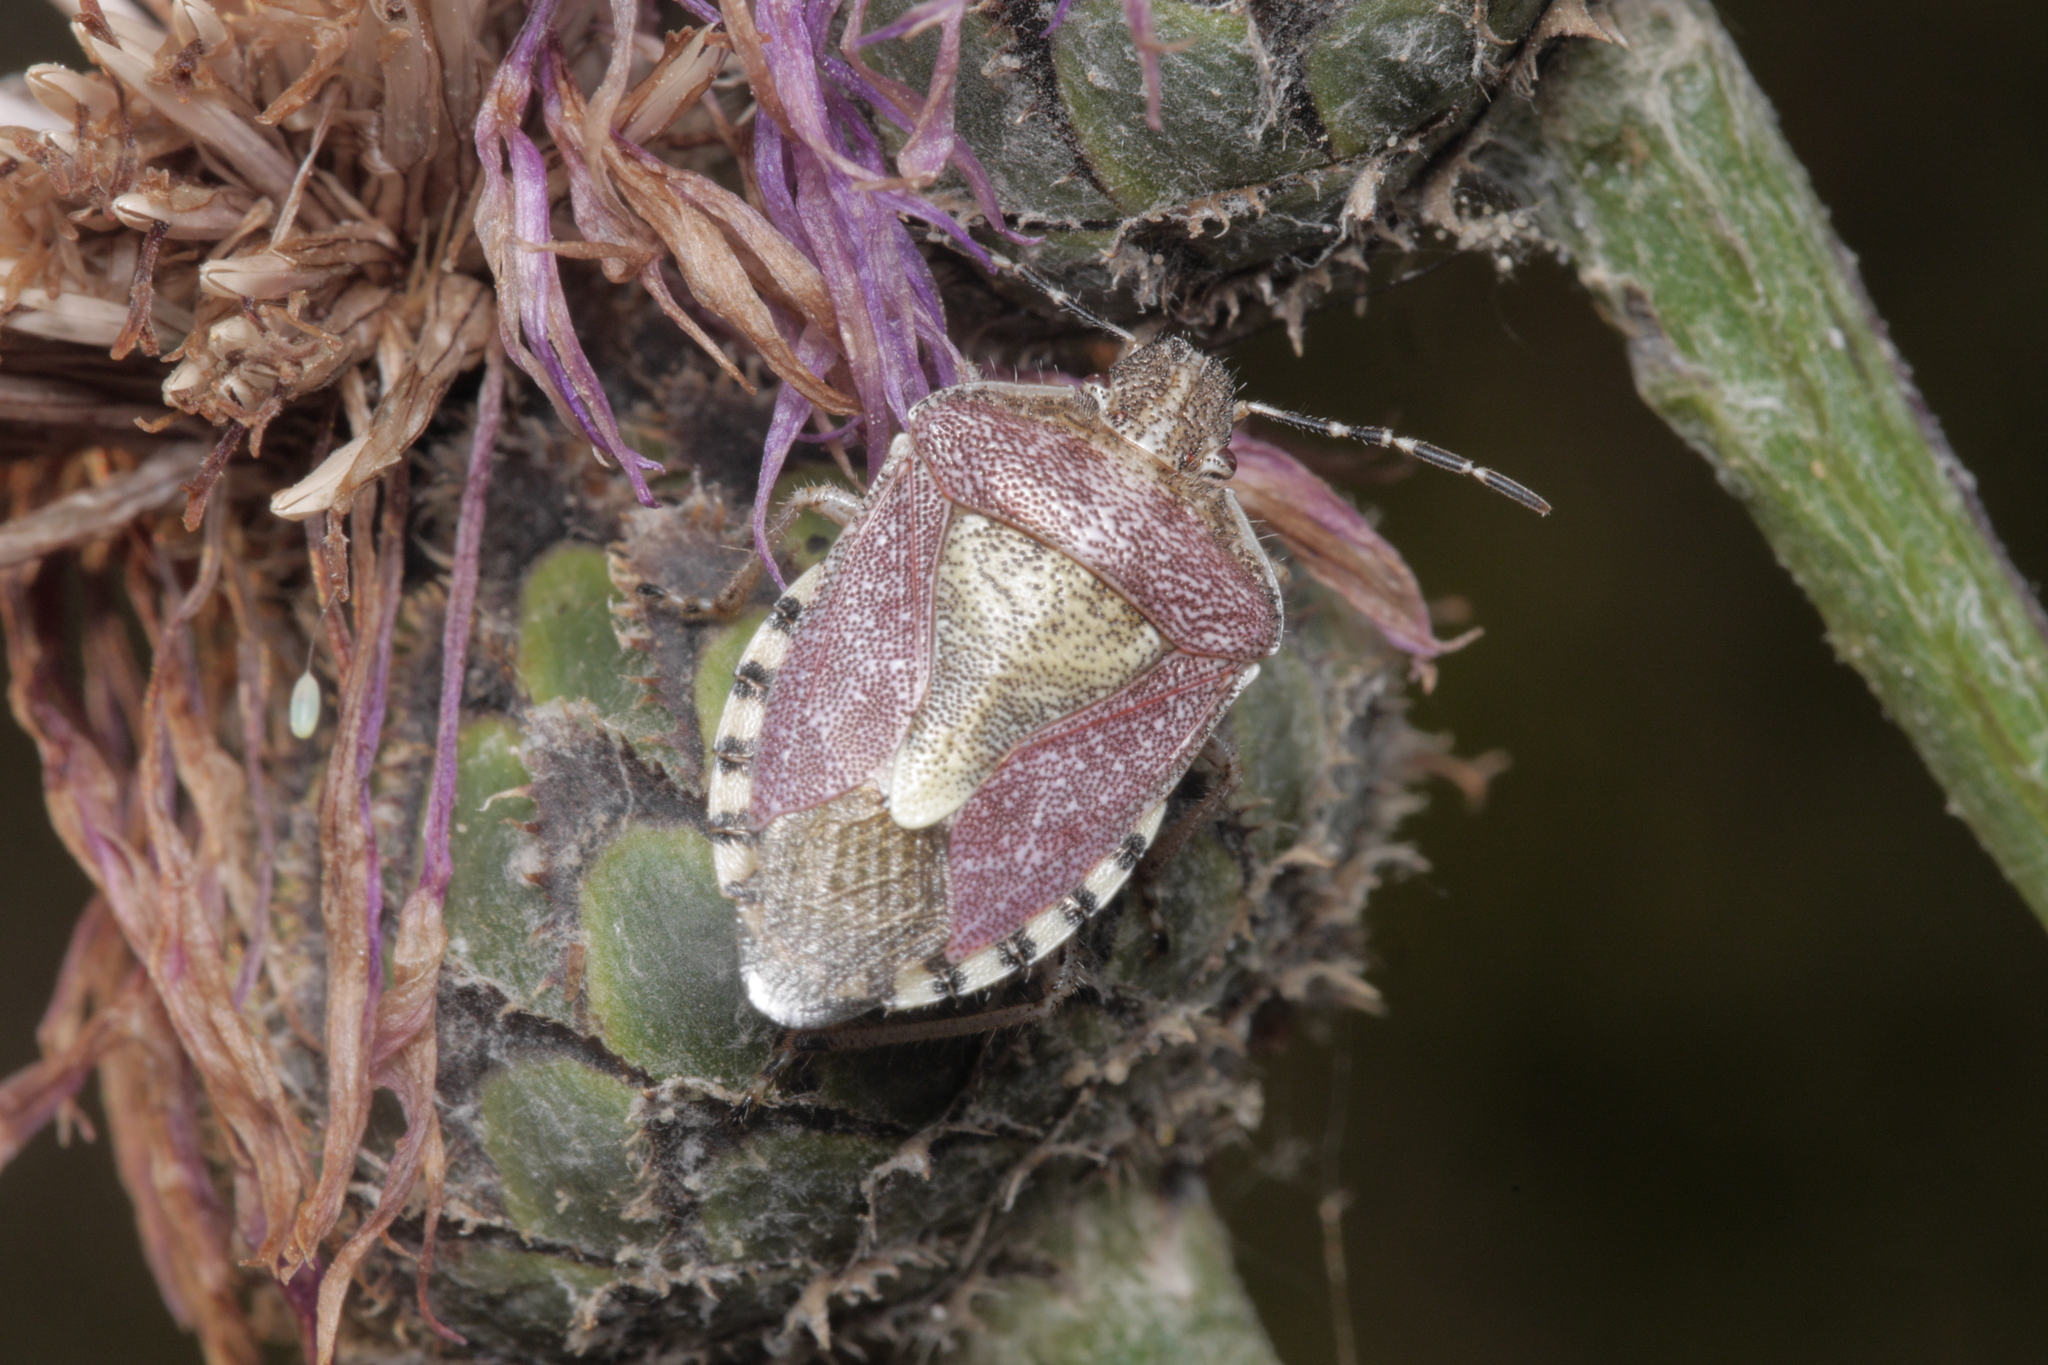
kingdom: Animalia
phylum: Arthropoda
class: Insecta
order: Hemiptera
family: Pentatomidae
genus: Dolycoris
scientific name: Dolycoris baccarum
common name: Sloe bug
